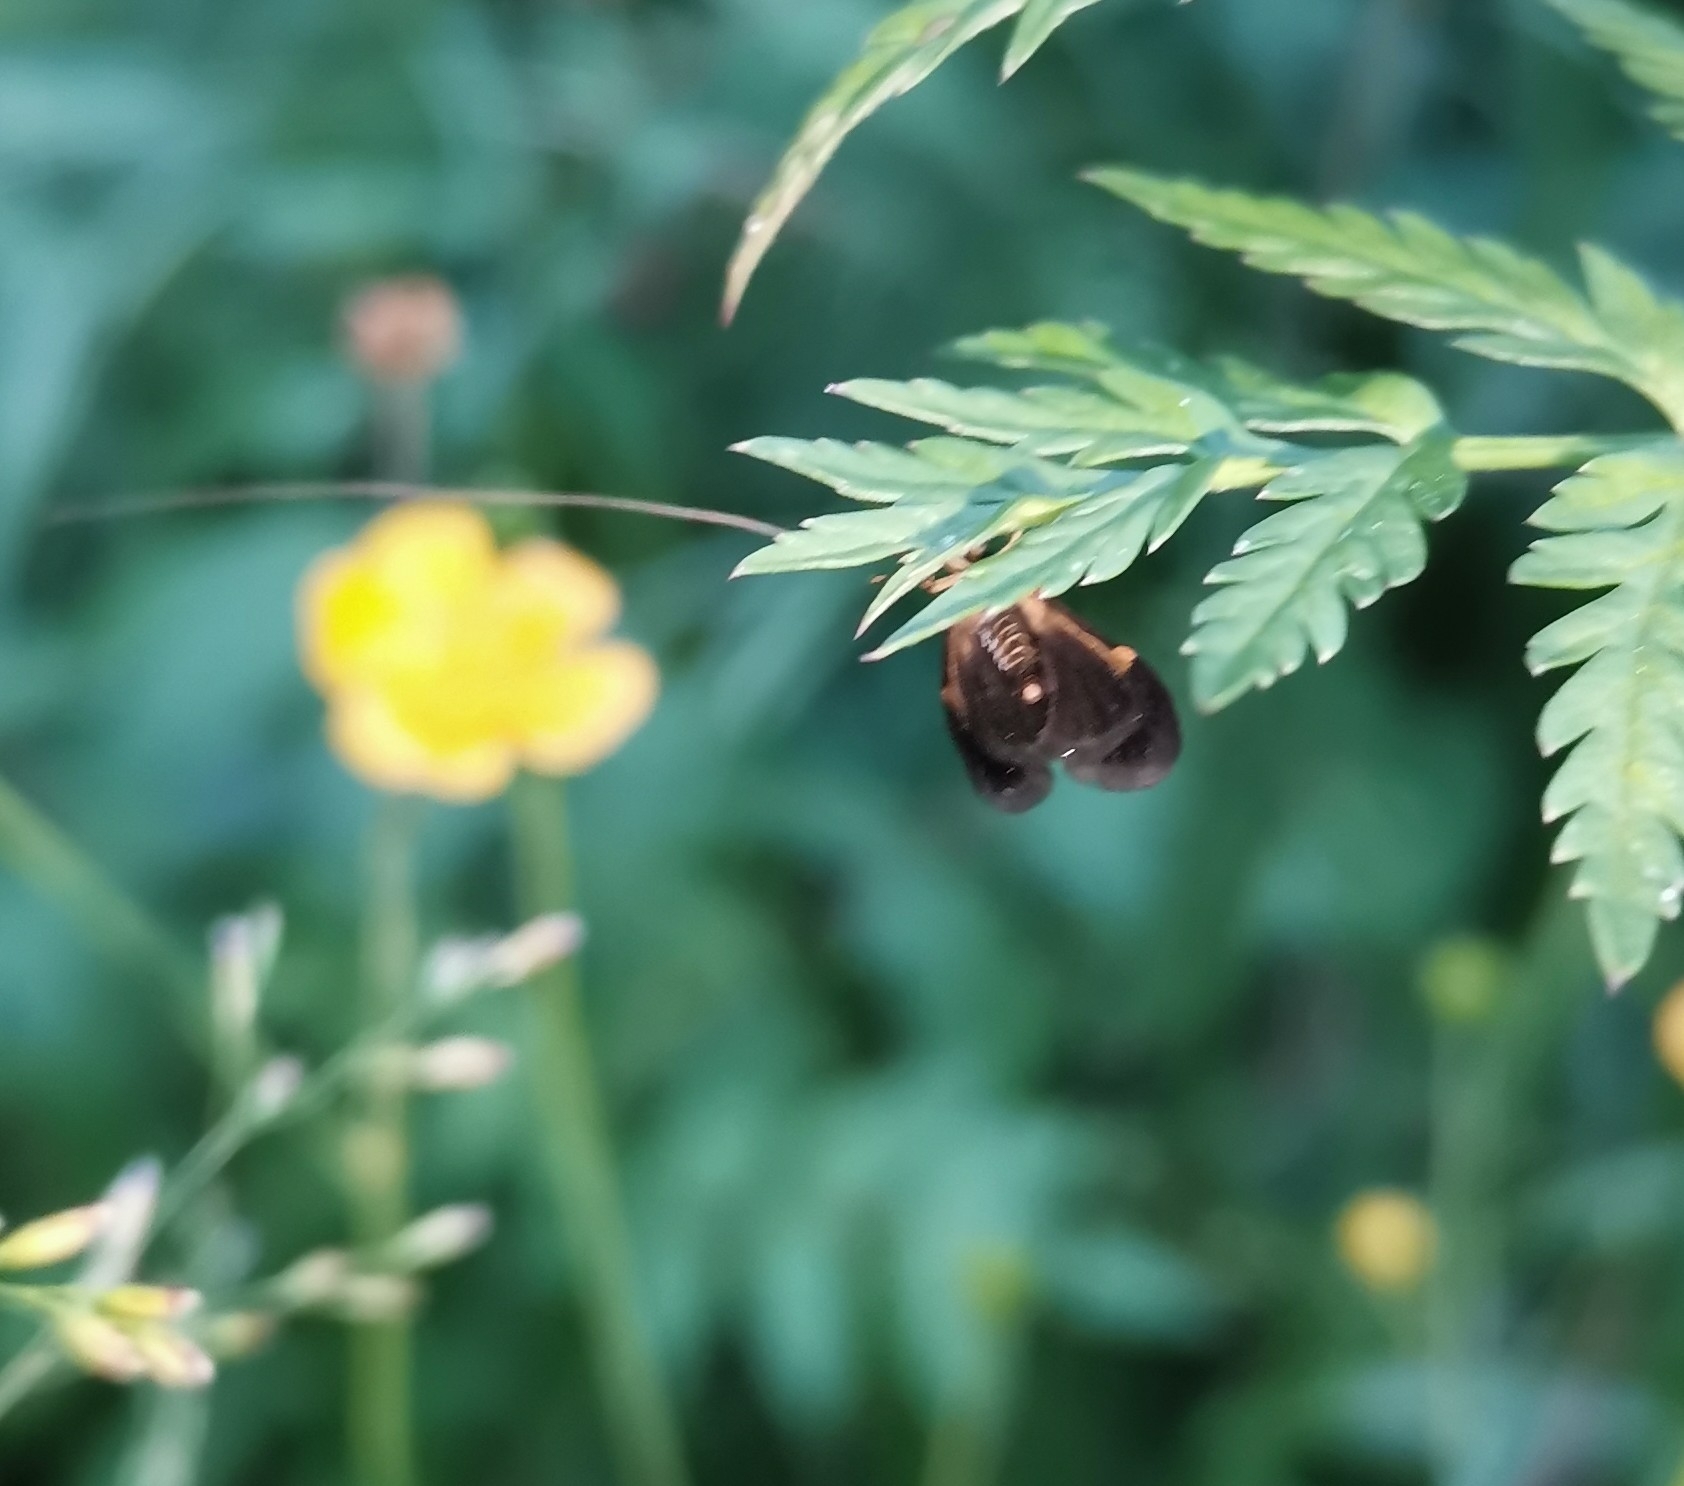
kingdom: Animalia
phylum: Arthropoda
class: Insecta
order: Lepidoptera
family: Adelidae
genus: Nemophora
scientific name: Nemophora degeerella
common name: Yellow-barred long-horn
